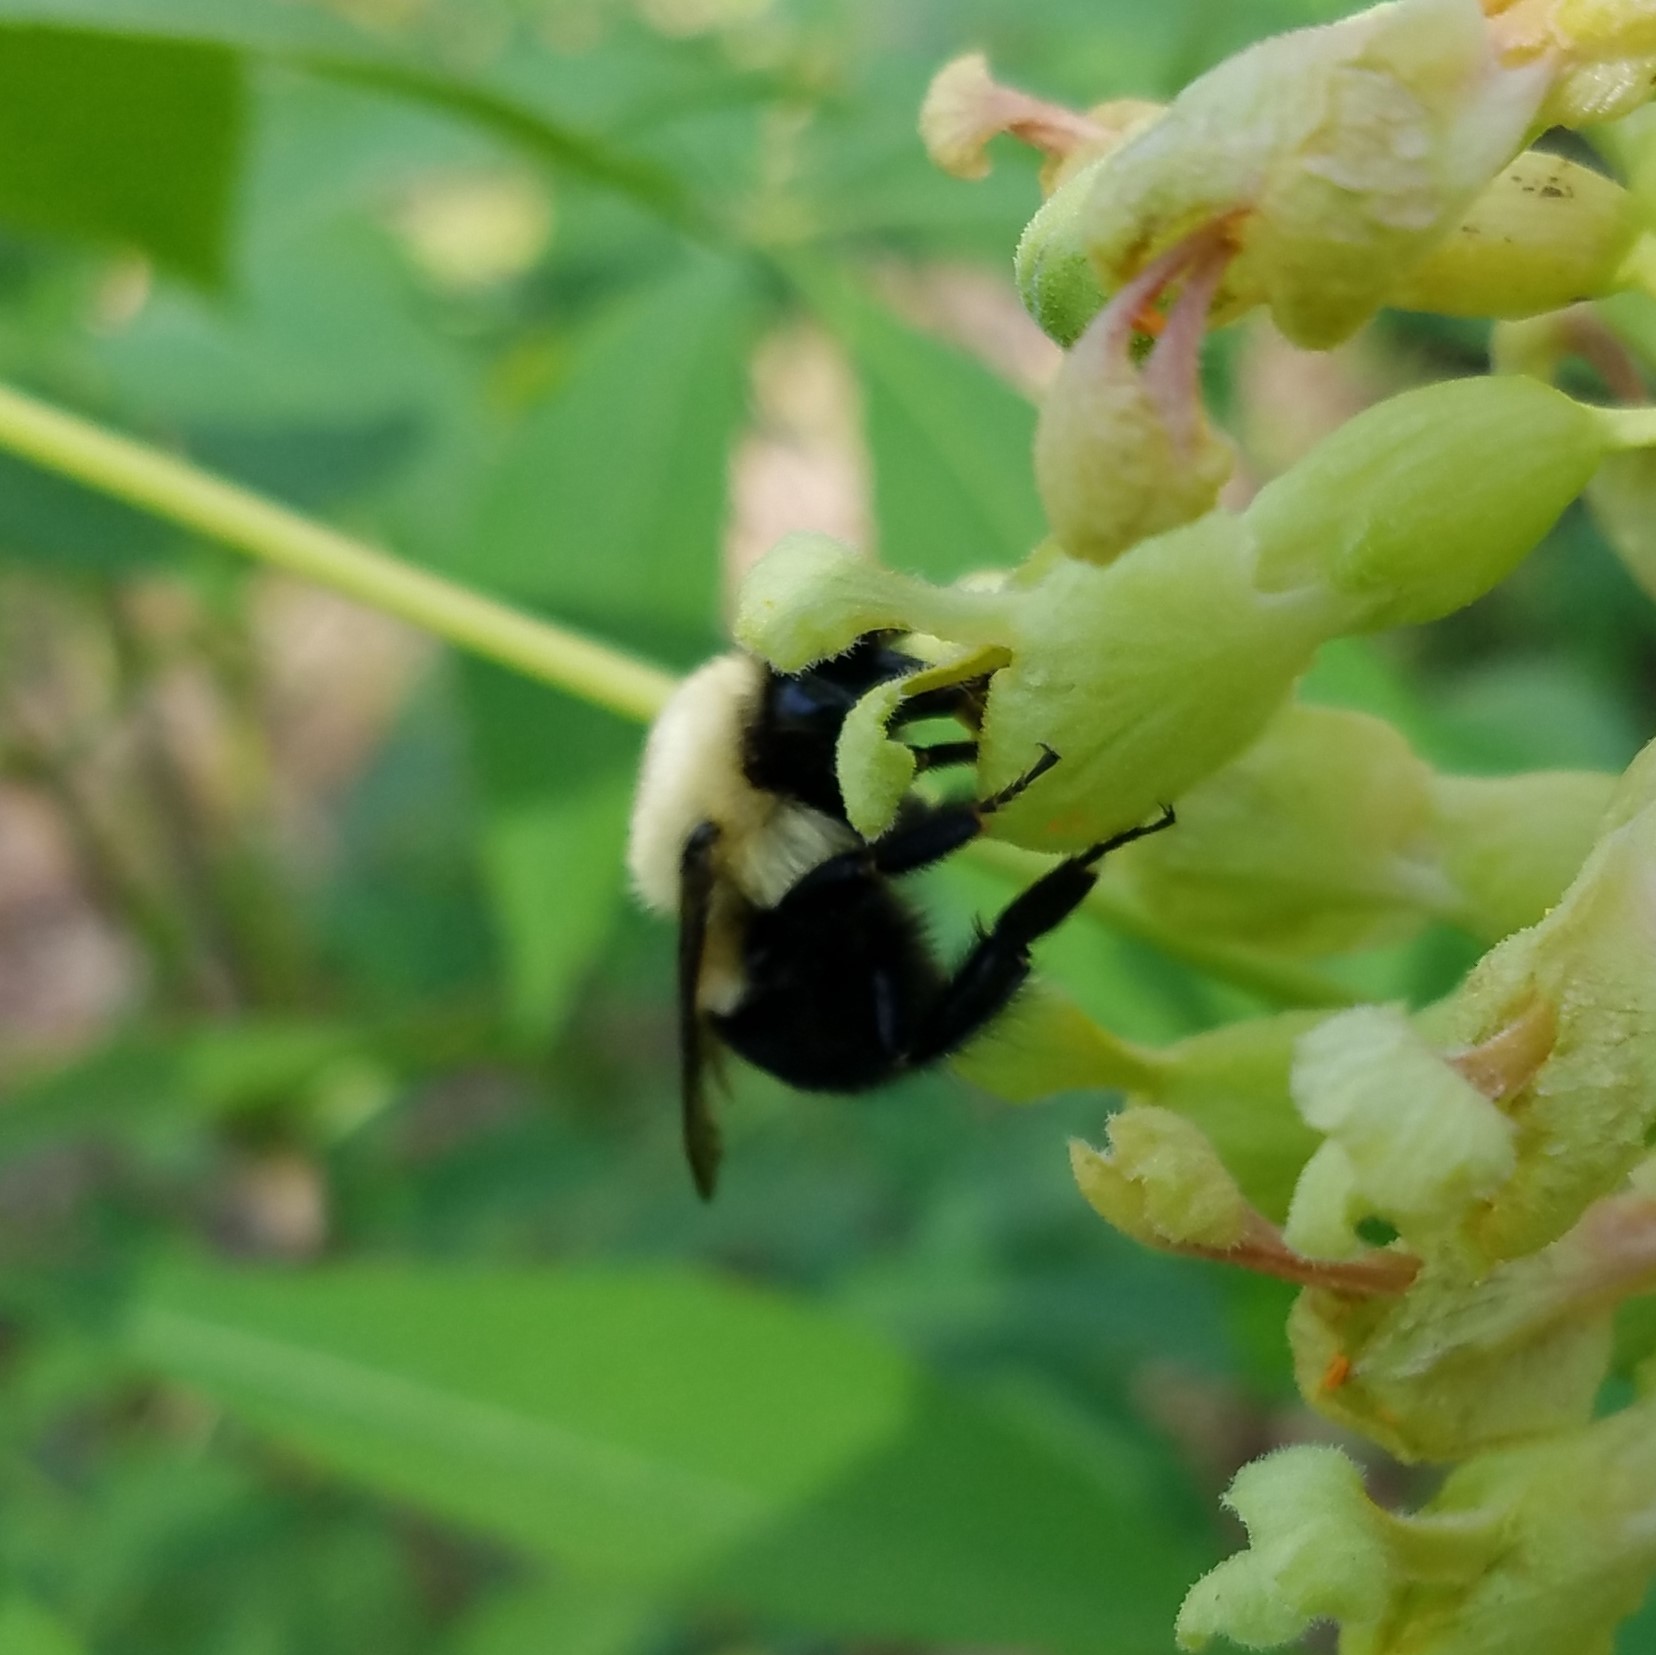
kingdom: Animalia
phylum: Arthropoda
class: Insecta
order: Hymenoptera
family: Apidae
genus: Bombus
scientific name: Bombus bimaculatus
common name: Two-spotted bumble bee
